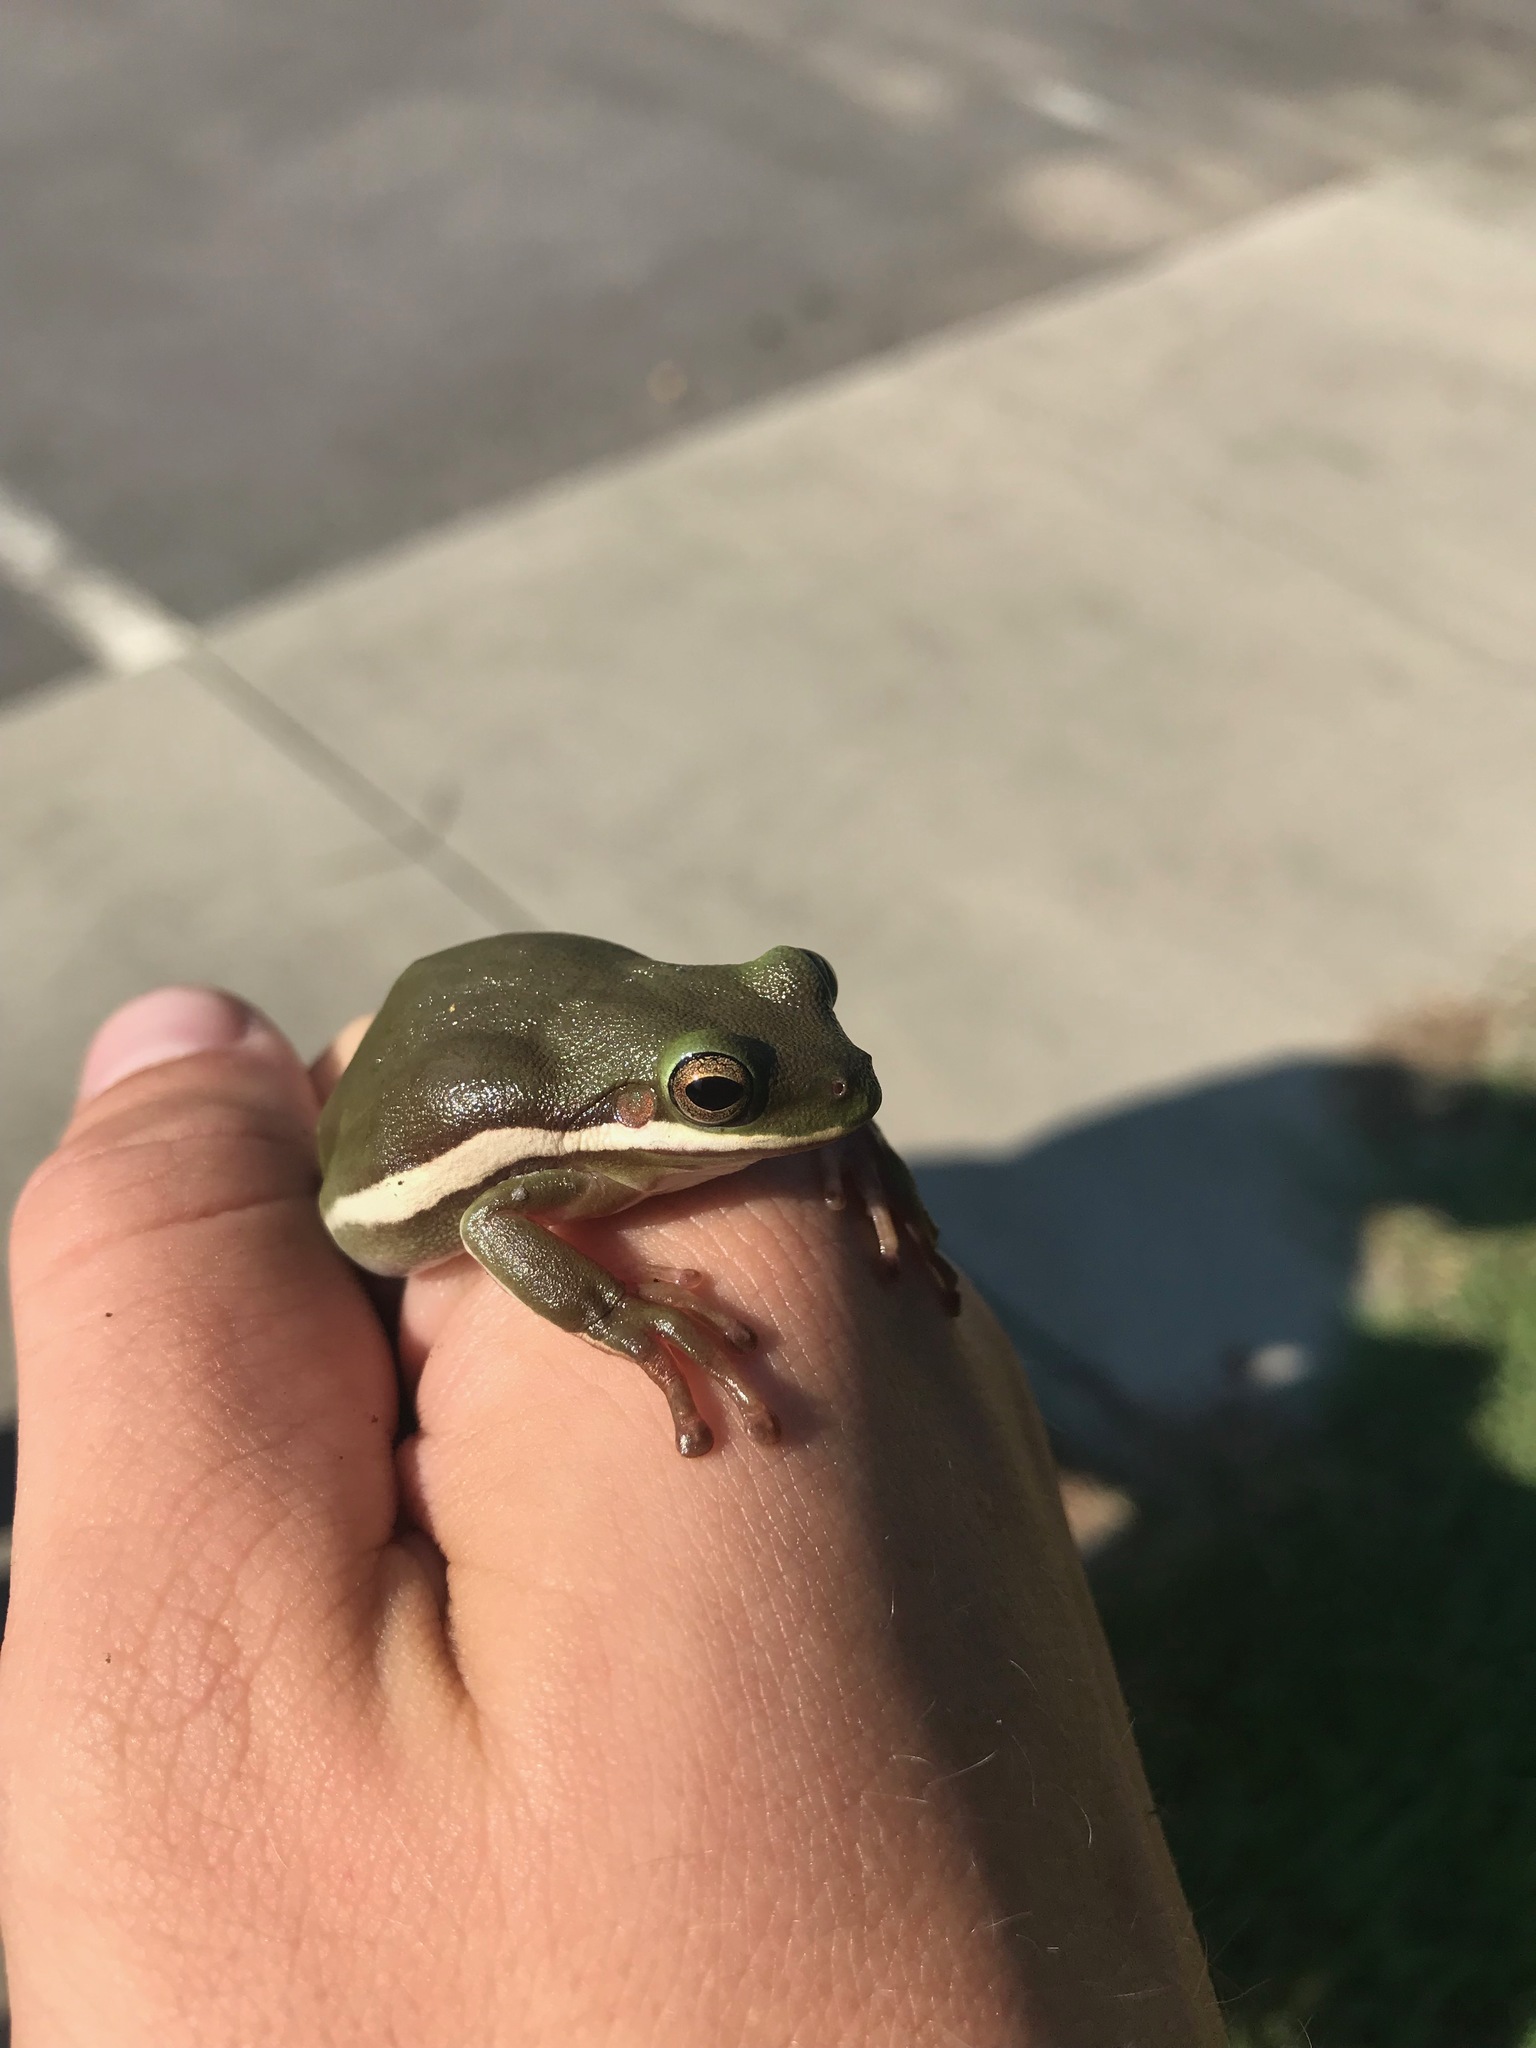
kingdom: Animalia
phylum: Chordata
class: Amphibia
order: Anura
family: Hylidae
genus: Dryophytes
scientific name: Dryophytes cinereus
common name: Green treefrog
